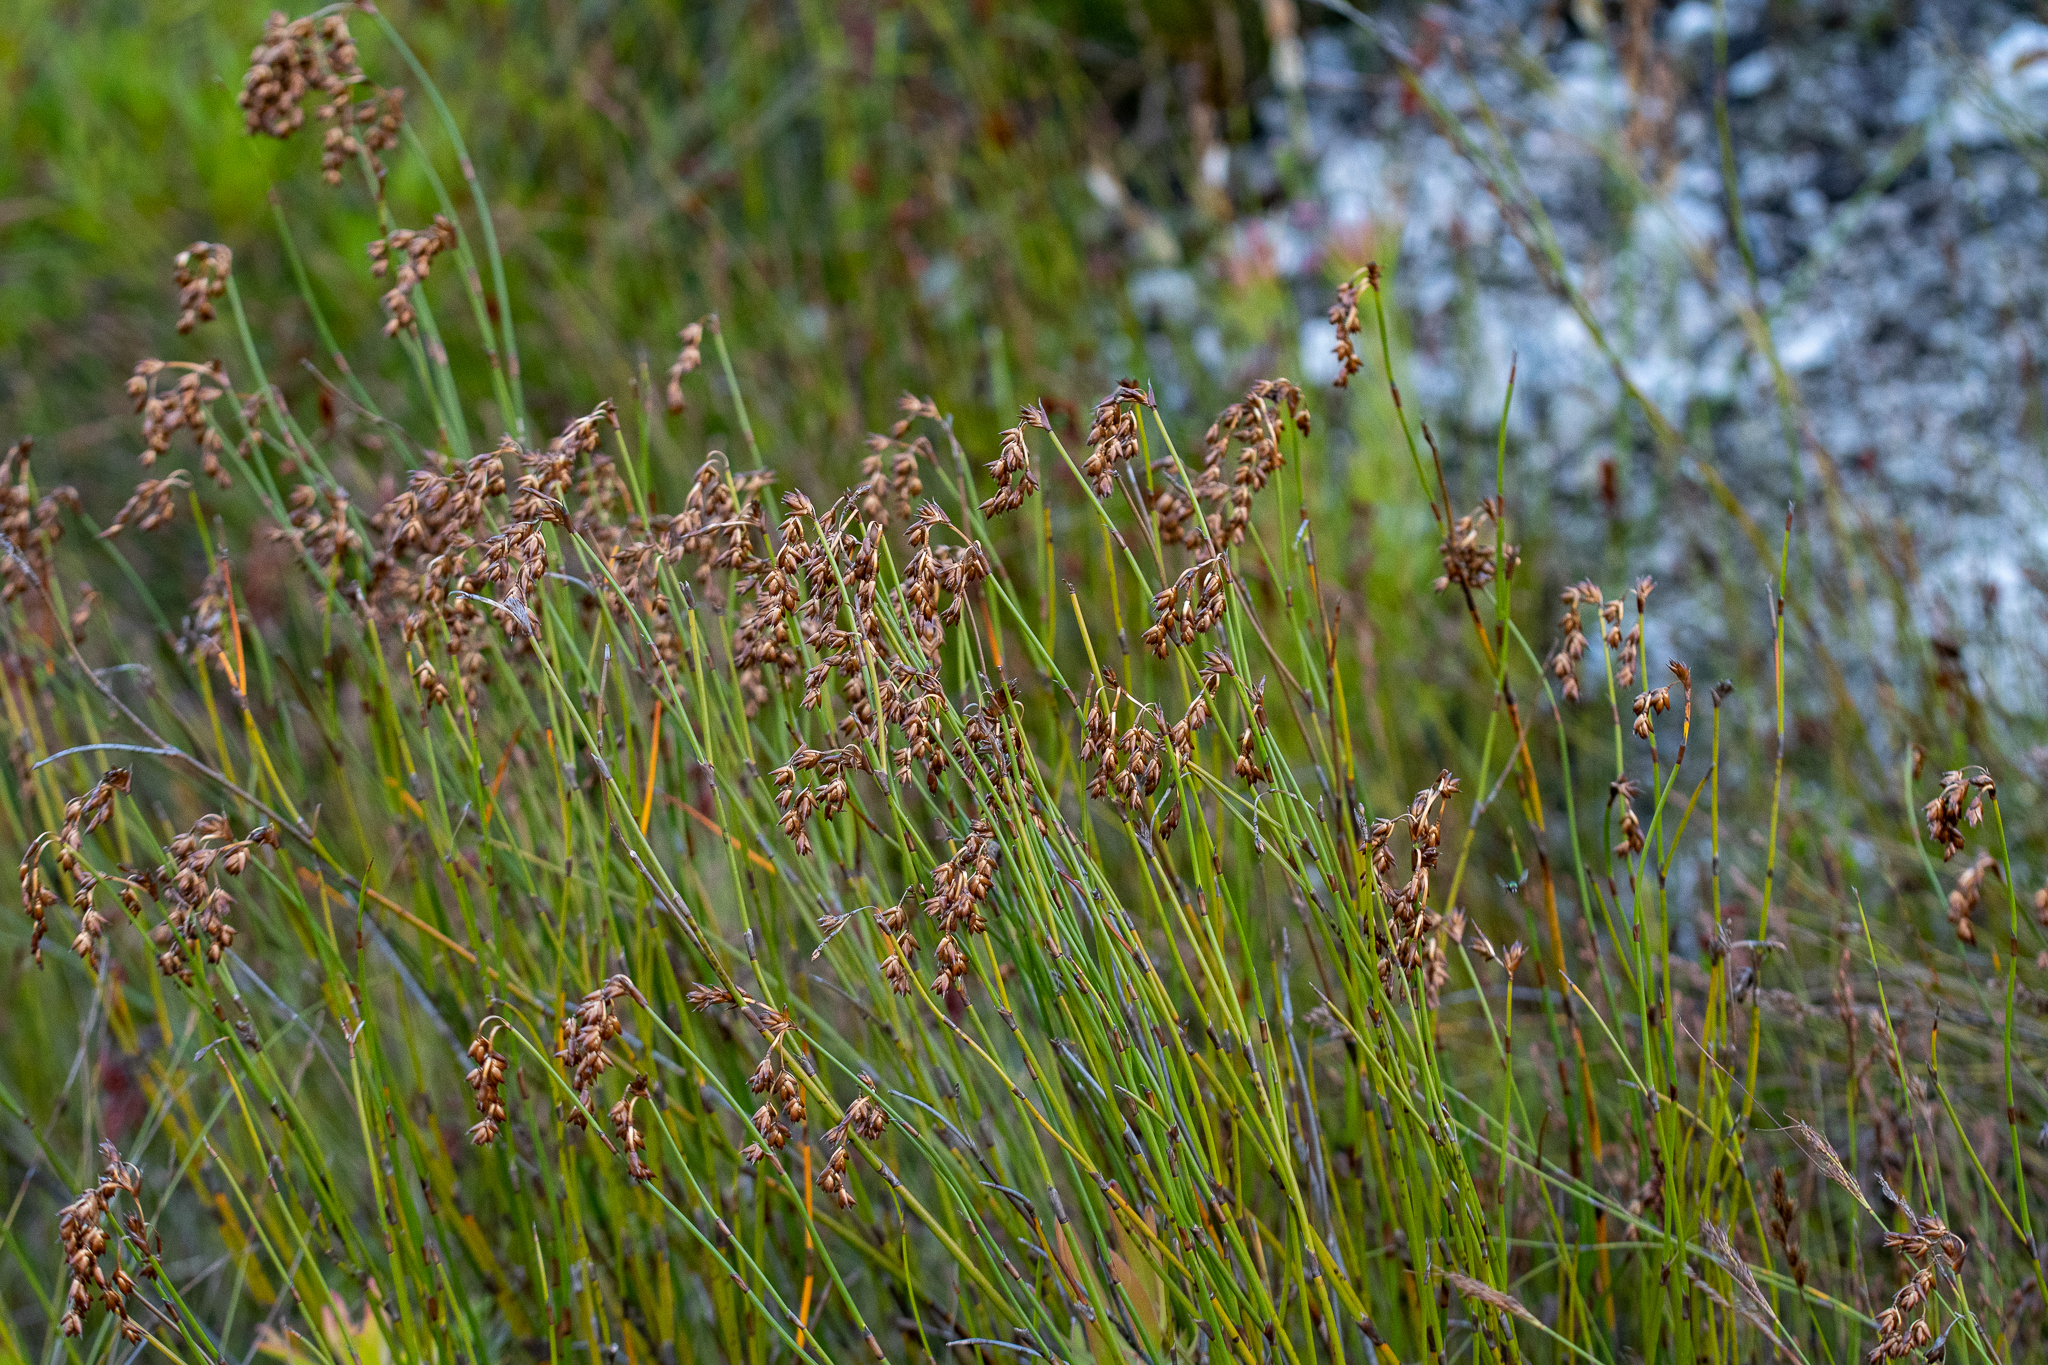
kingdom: Plantae
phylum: Tracheophyta
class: Liliopsida
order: Poales
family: Restionaceae
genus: Restio
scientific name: Restio egregius
